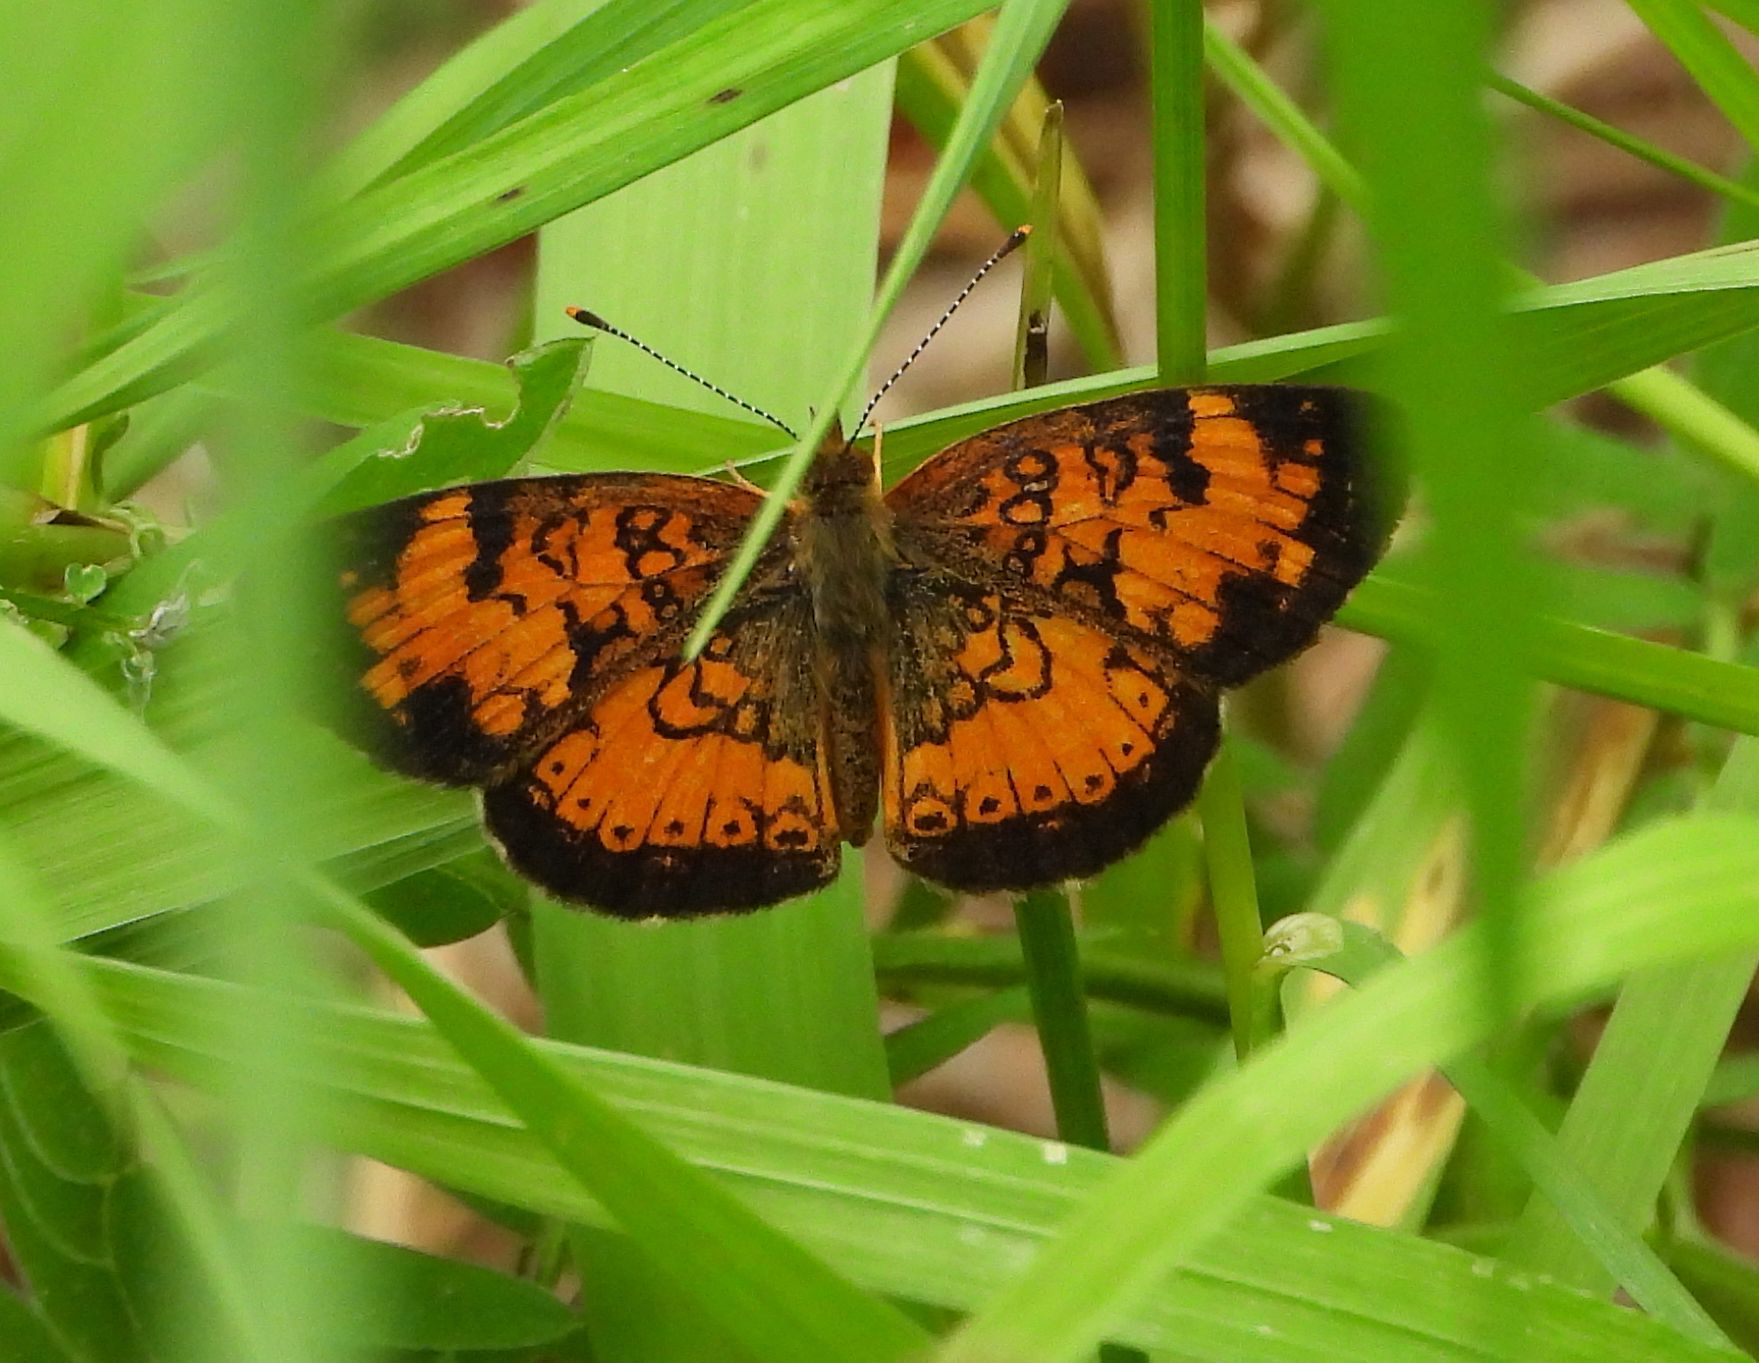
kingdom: Animalia
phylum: Arthropoda
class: Insecta
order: Lepidoptera
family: Nymphalidae
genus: Phyciodes
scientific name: Phyciodes tharos
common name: Pearl crescent
